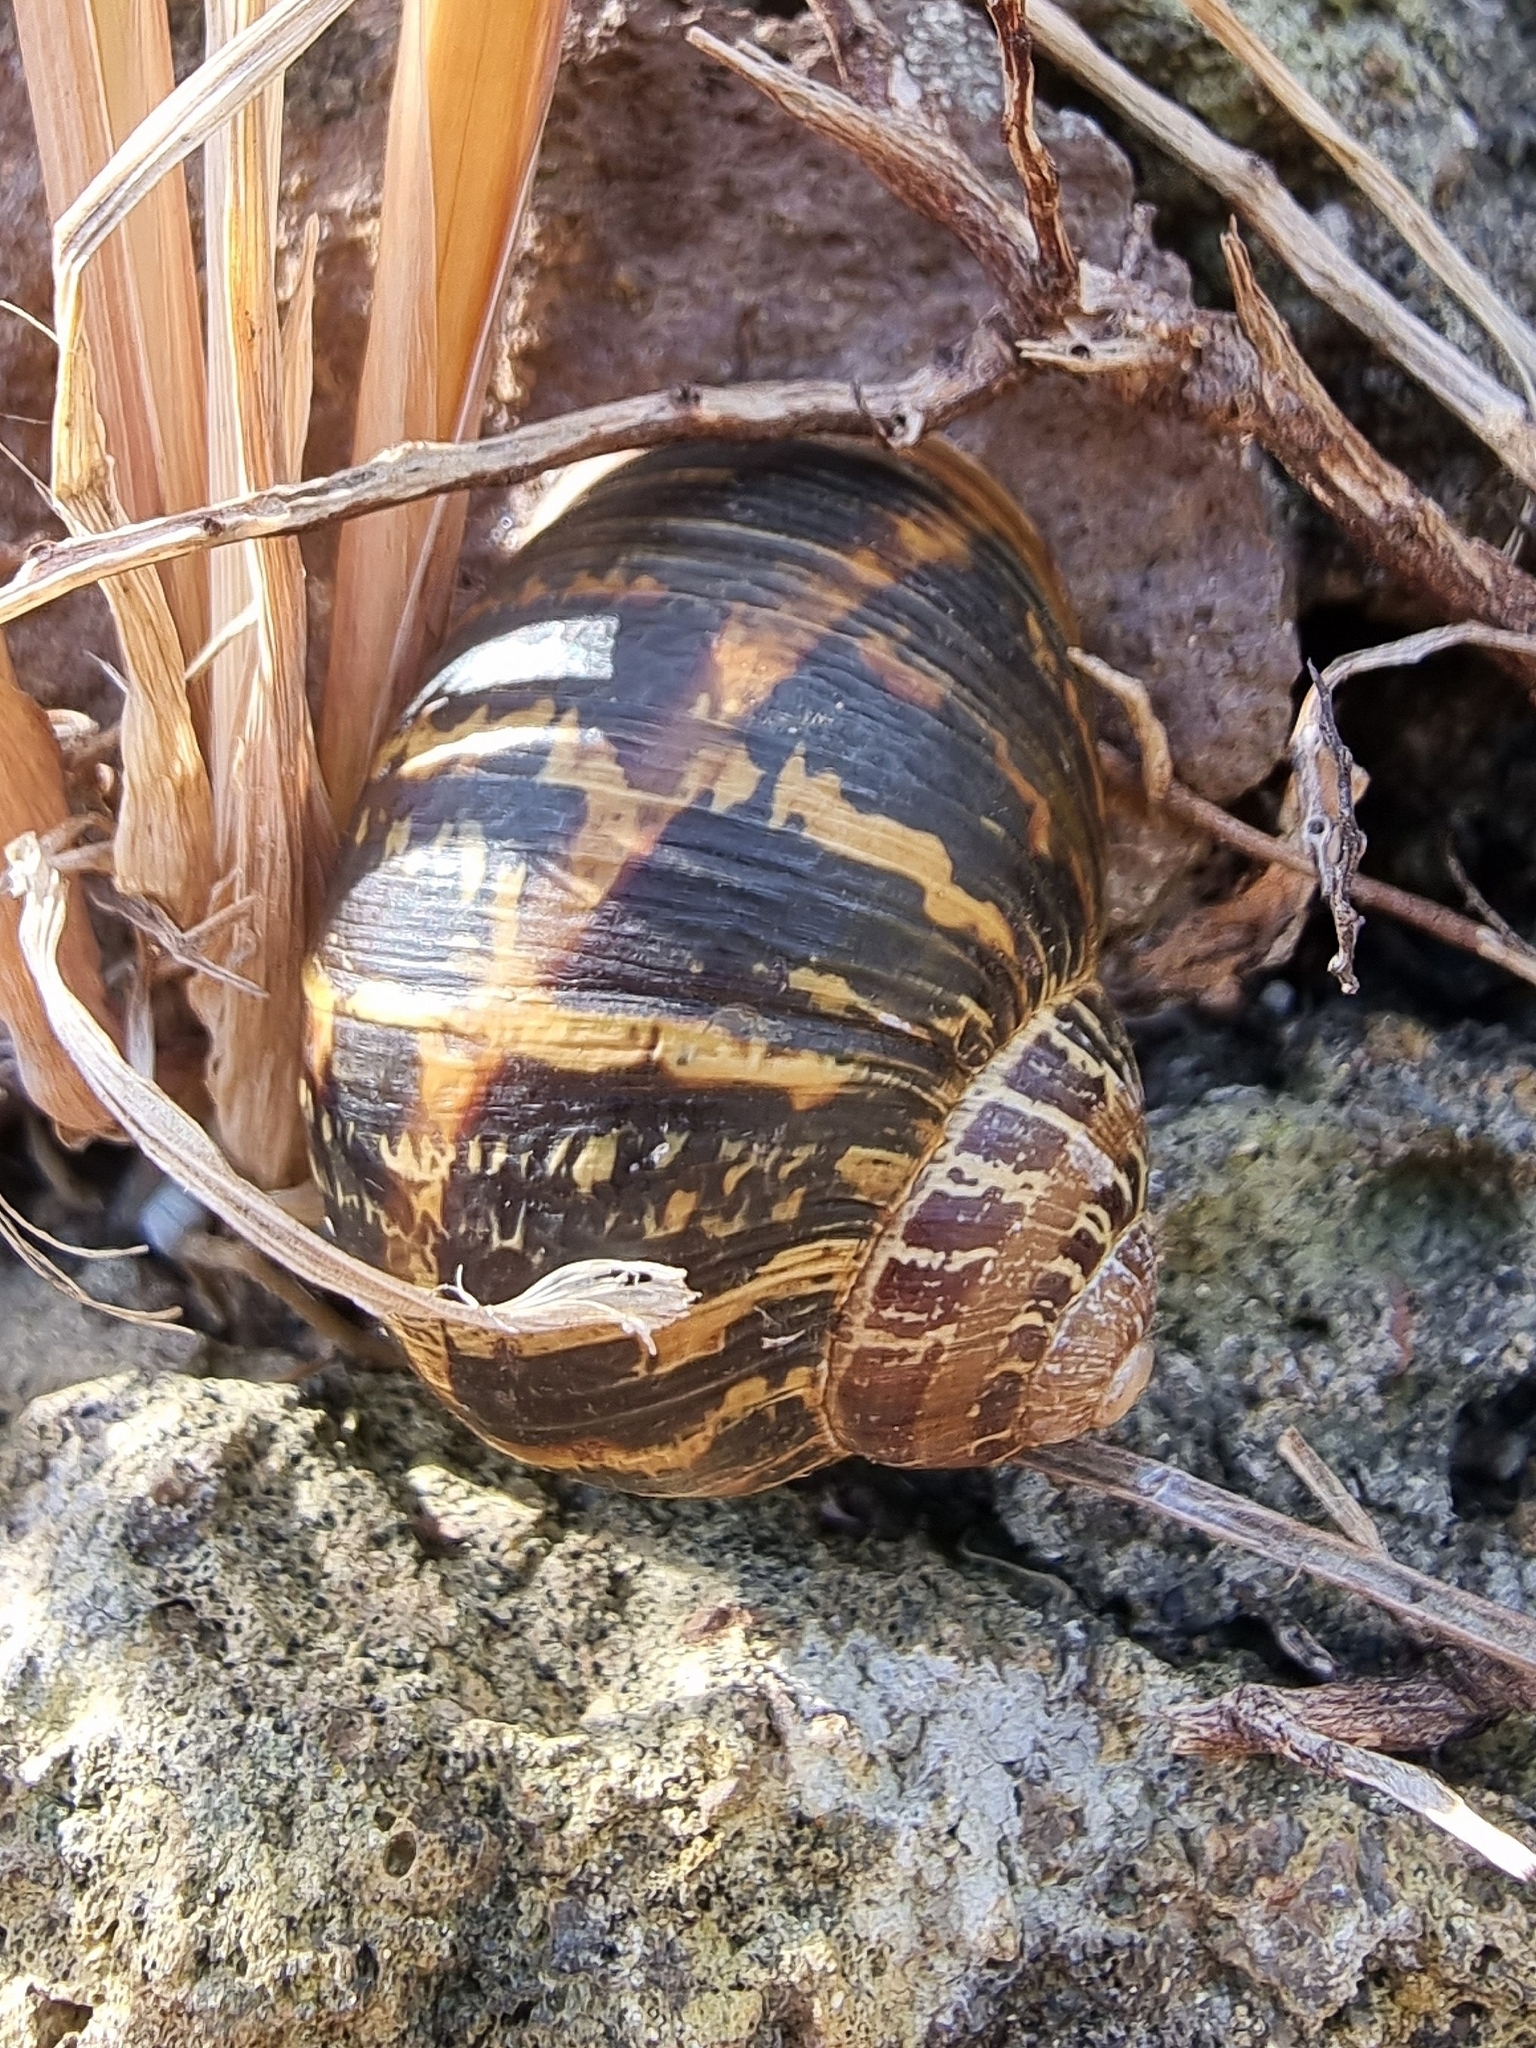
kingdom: Animalia
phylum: Mollusca
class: Gastropoda
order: Stylommatophora
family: Helicidae
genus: Cornu
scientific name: Cornu aspersum
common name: Brown garden snail
